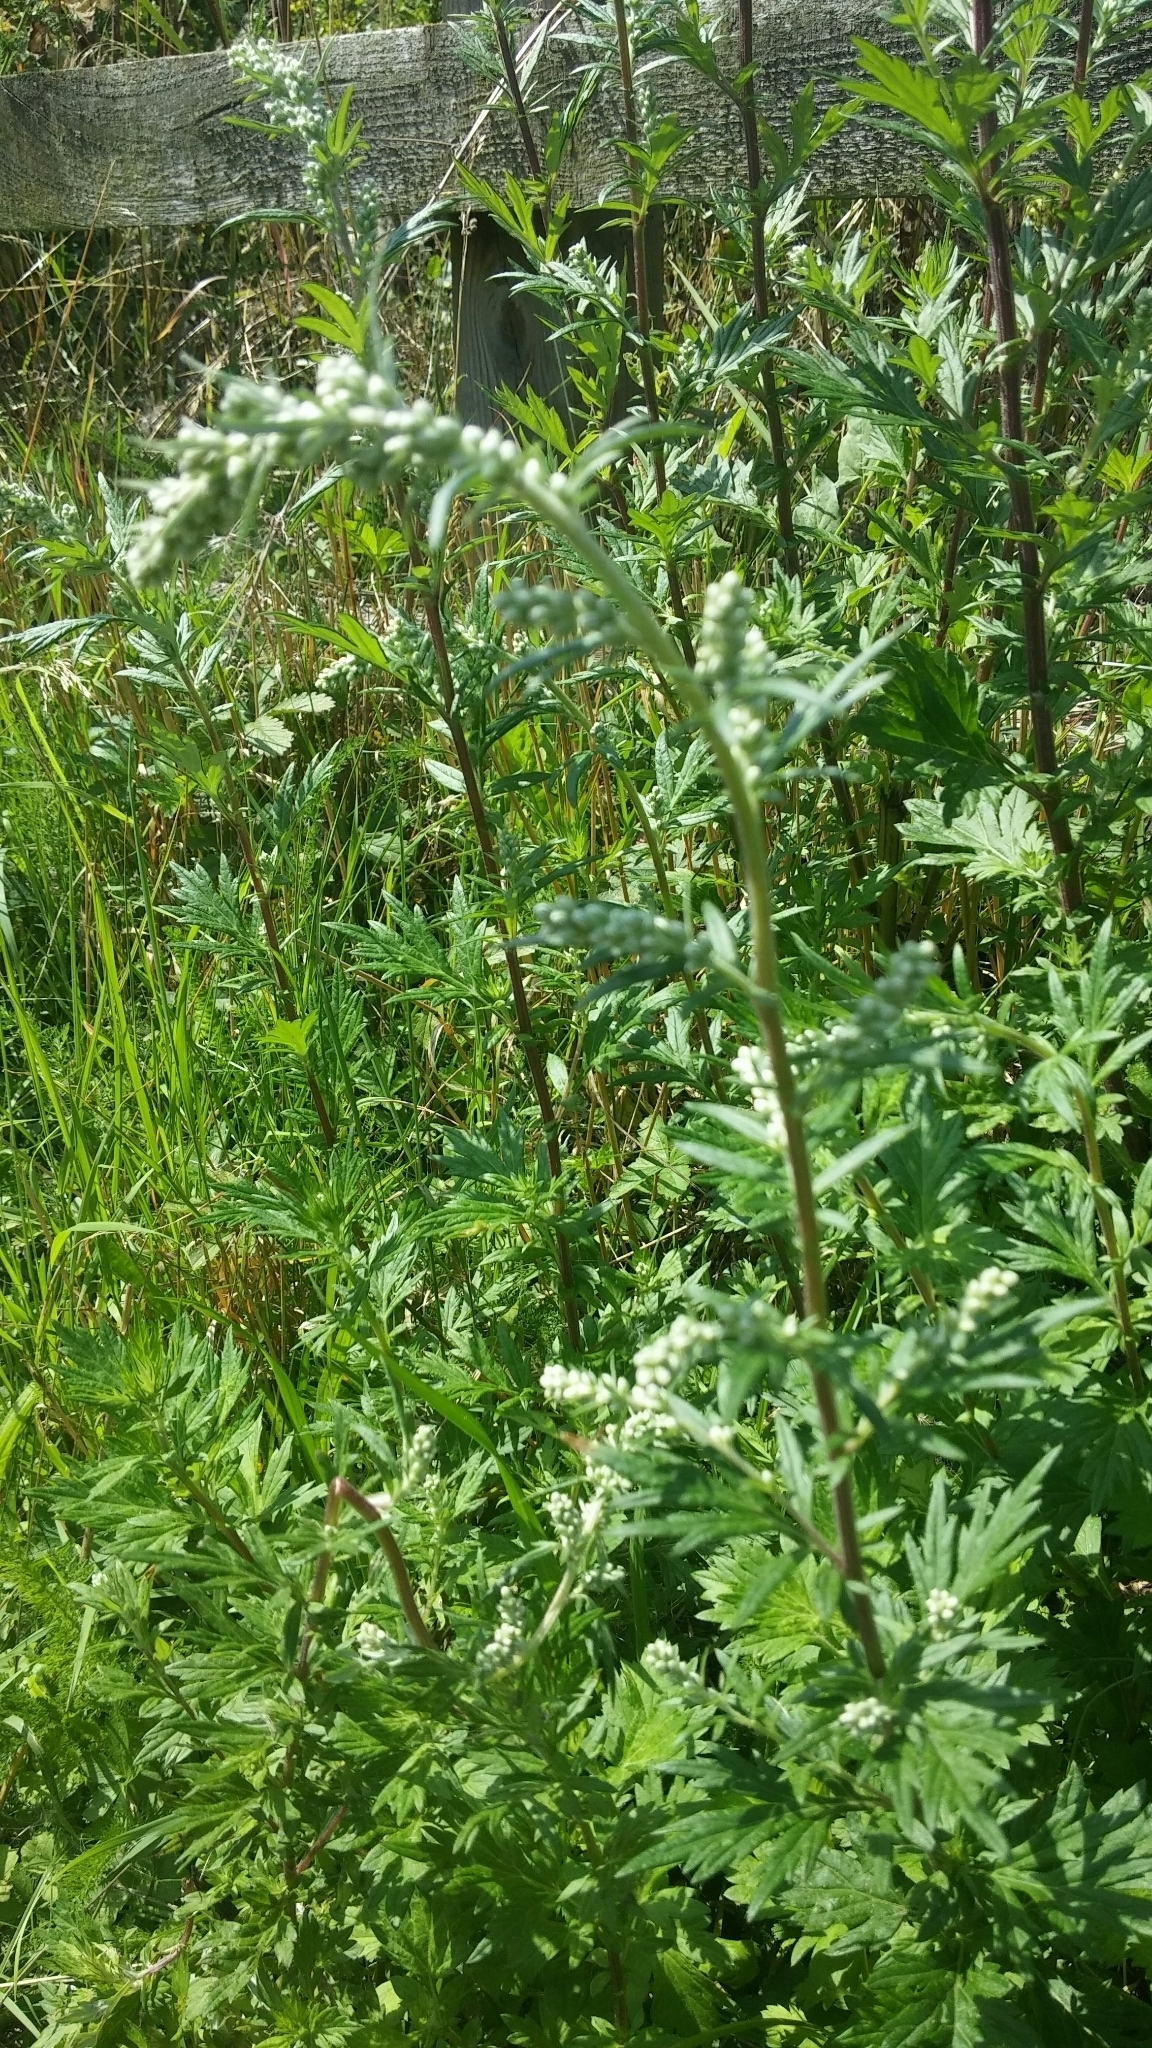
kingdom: Plantae
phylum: Tracheophyta
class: Magnoliopsida
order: Asterales
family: Asteraceae
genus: Artemisia
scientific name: Artemisia vulgaris
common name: Mugwort
